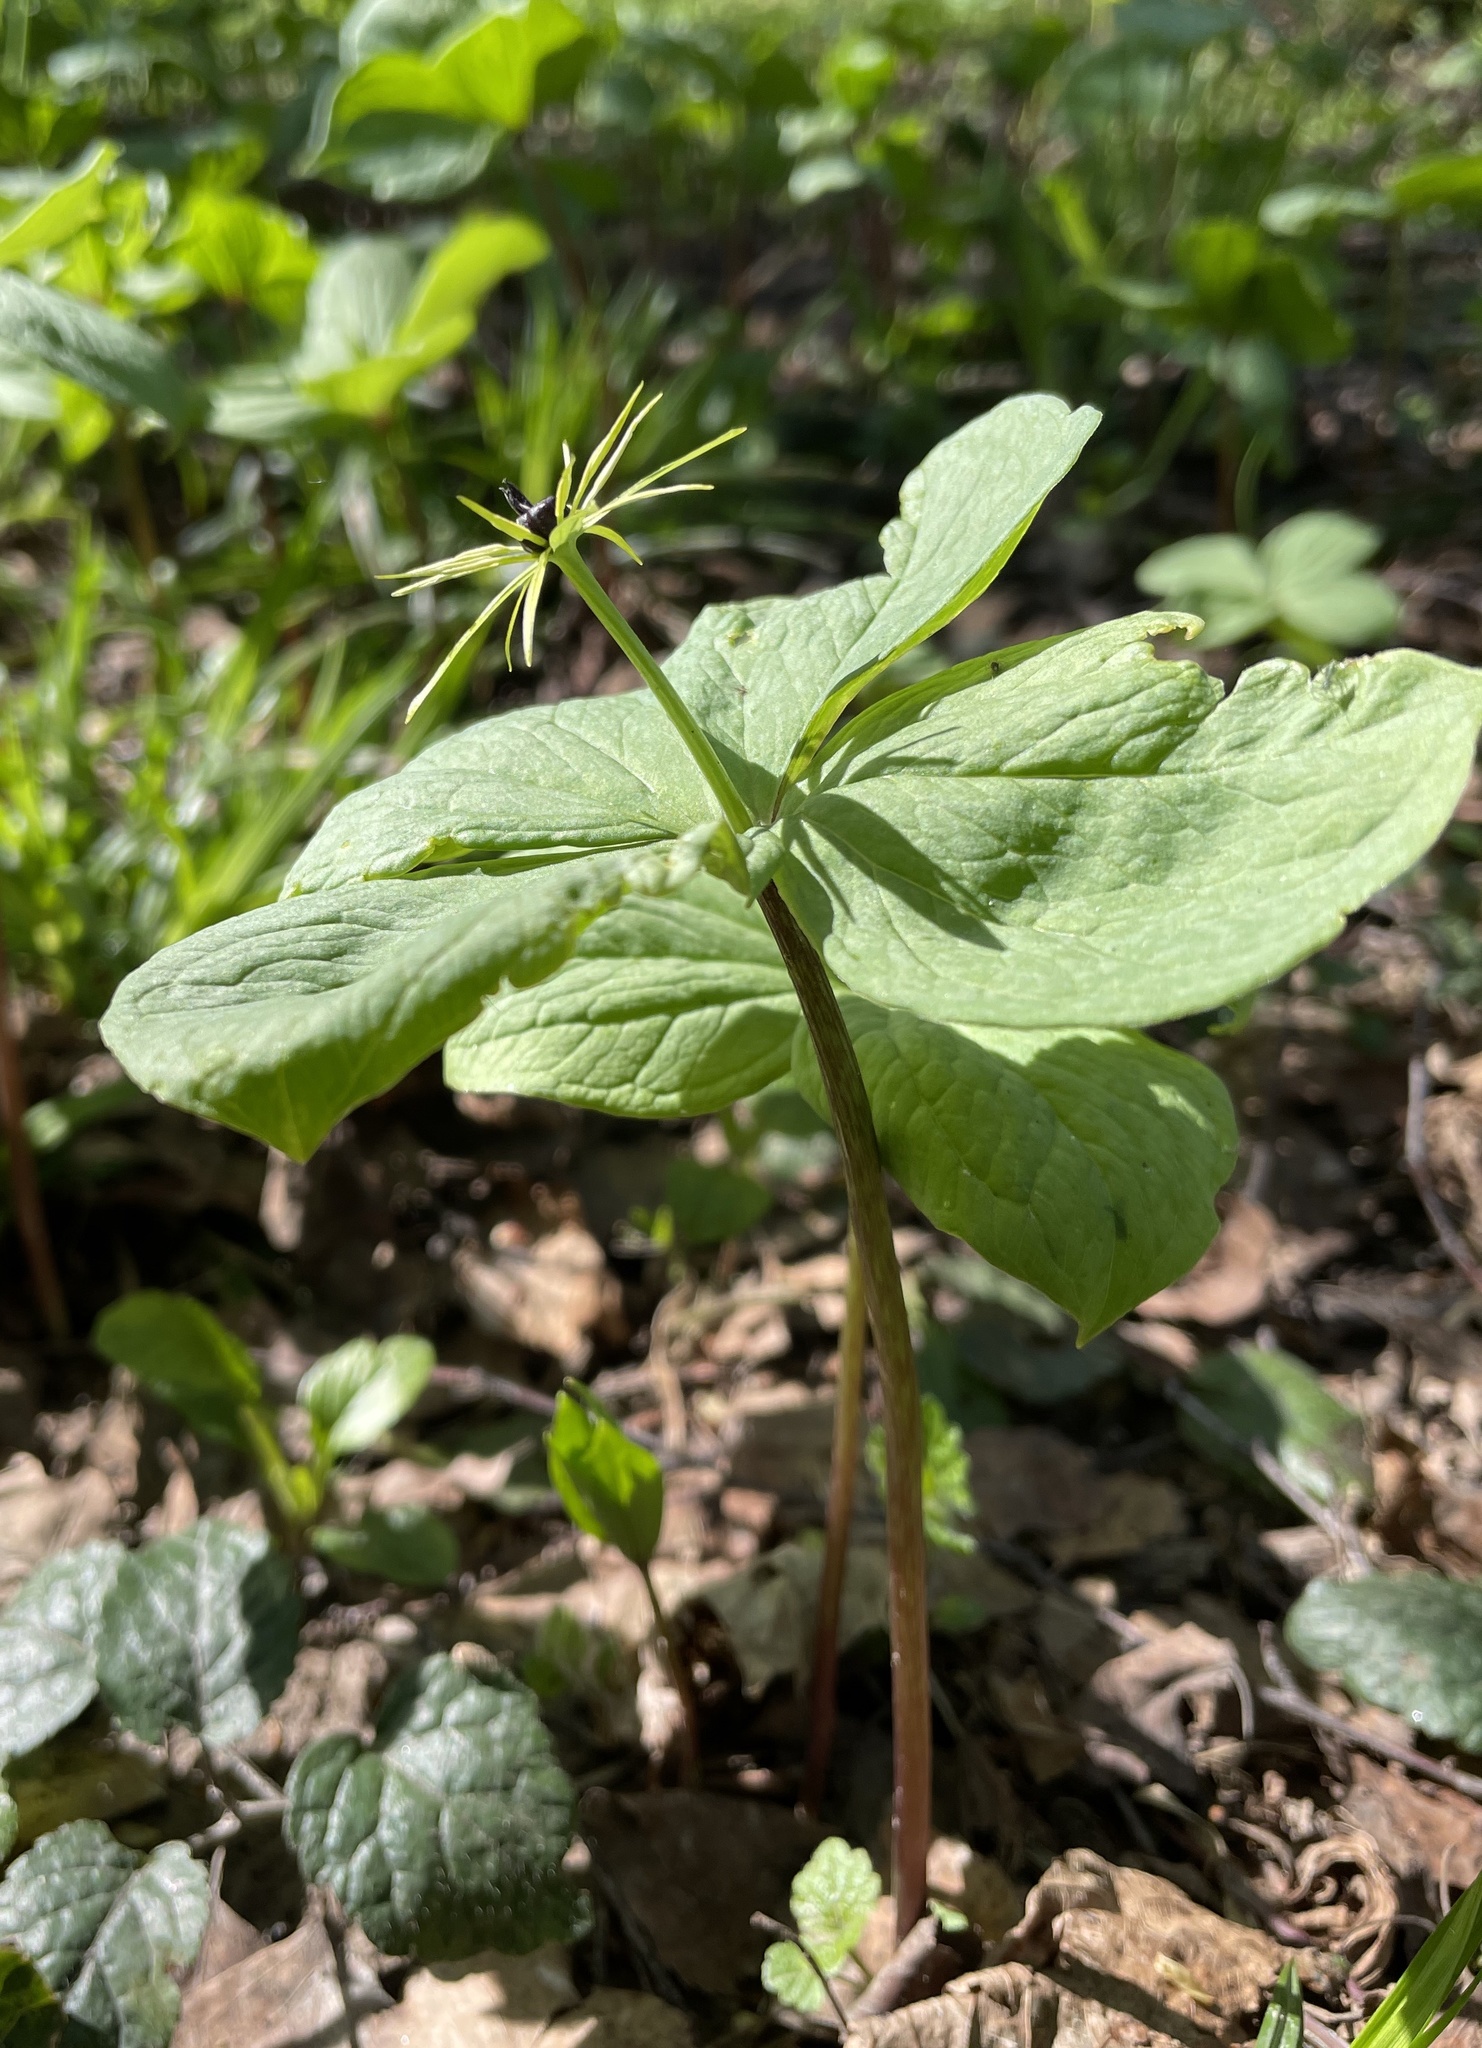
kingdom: Plantae
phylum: Tracheophyta
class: Liliopsida
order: Liliales
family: Melanthiaceae
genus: Paris
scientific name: Paris quadrifolia
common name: Herb-paris
